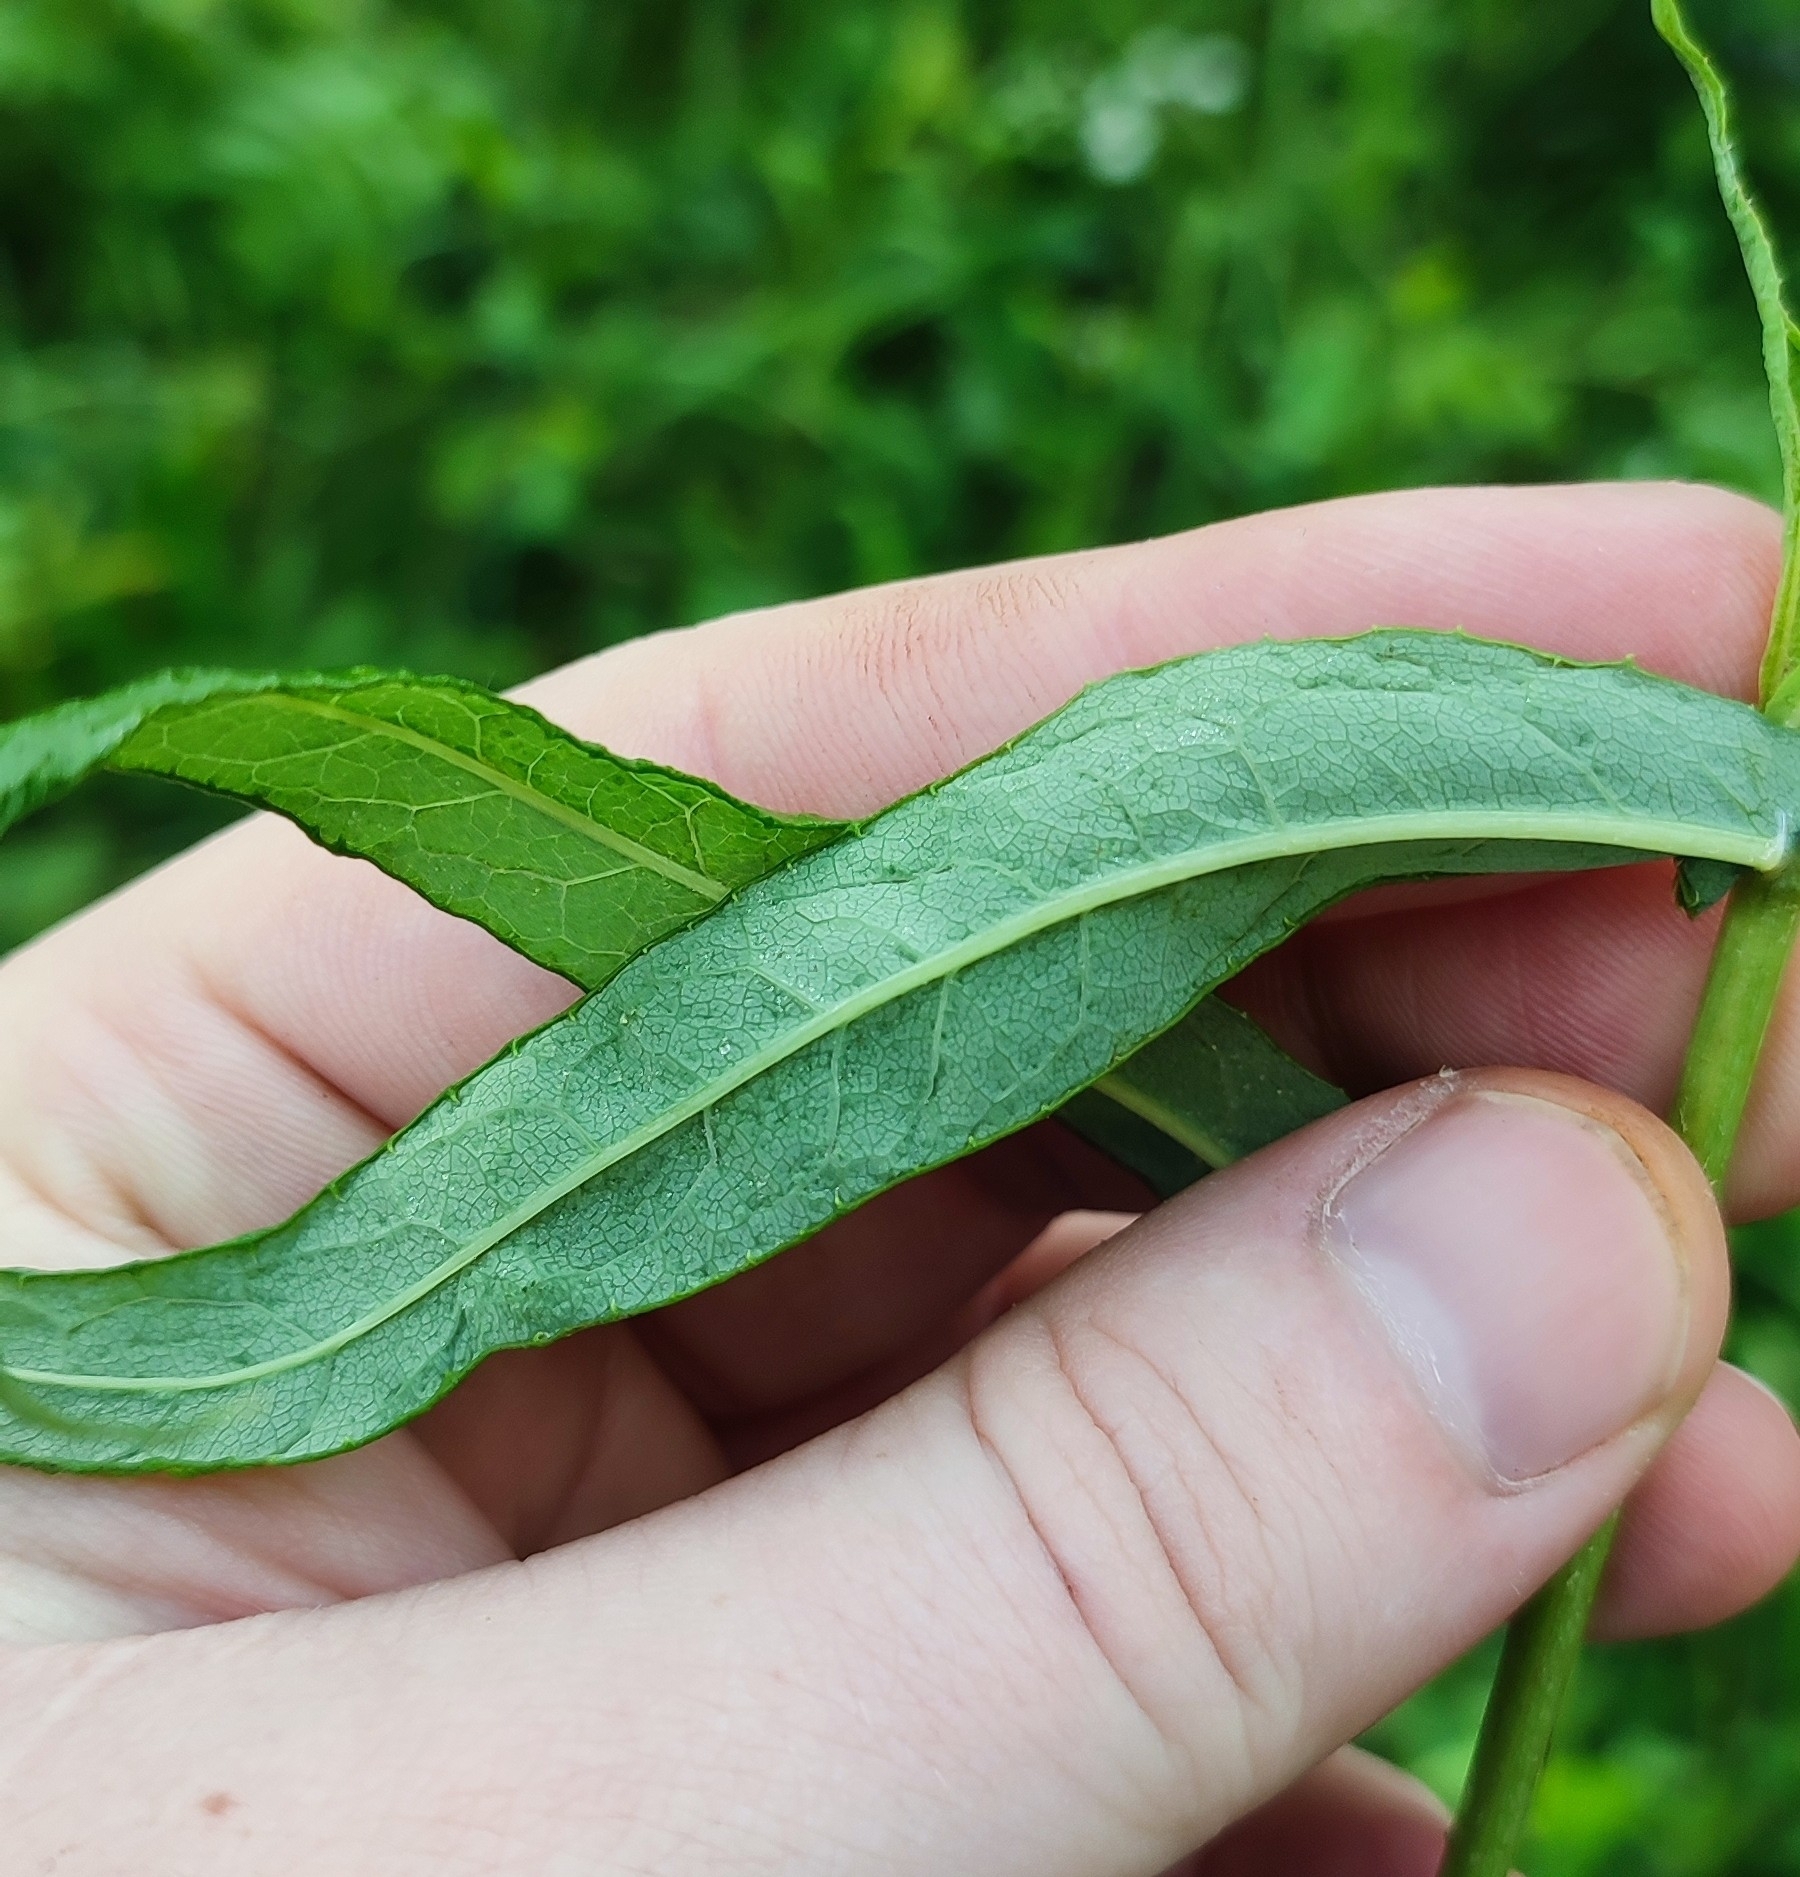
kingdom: Plantae
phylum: Tracheophyta
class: Magnoliopsida
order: Asterales
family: Asteraceae
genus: Lactuca
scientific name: Lactuca sibirica
